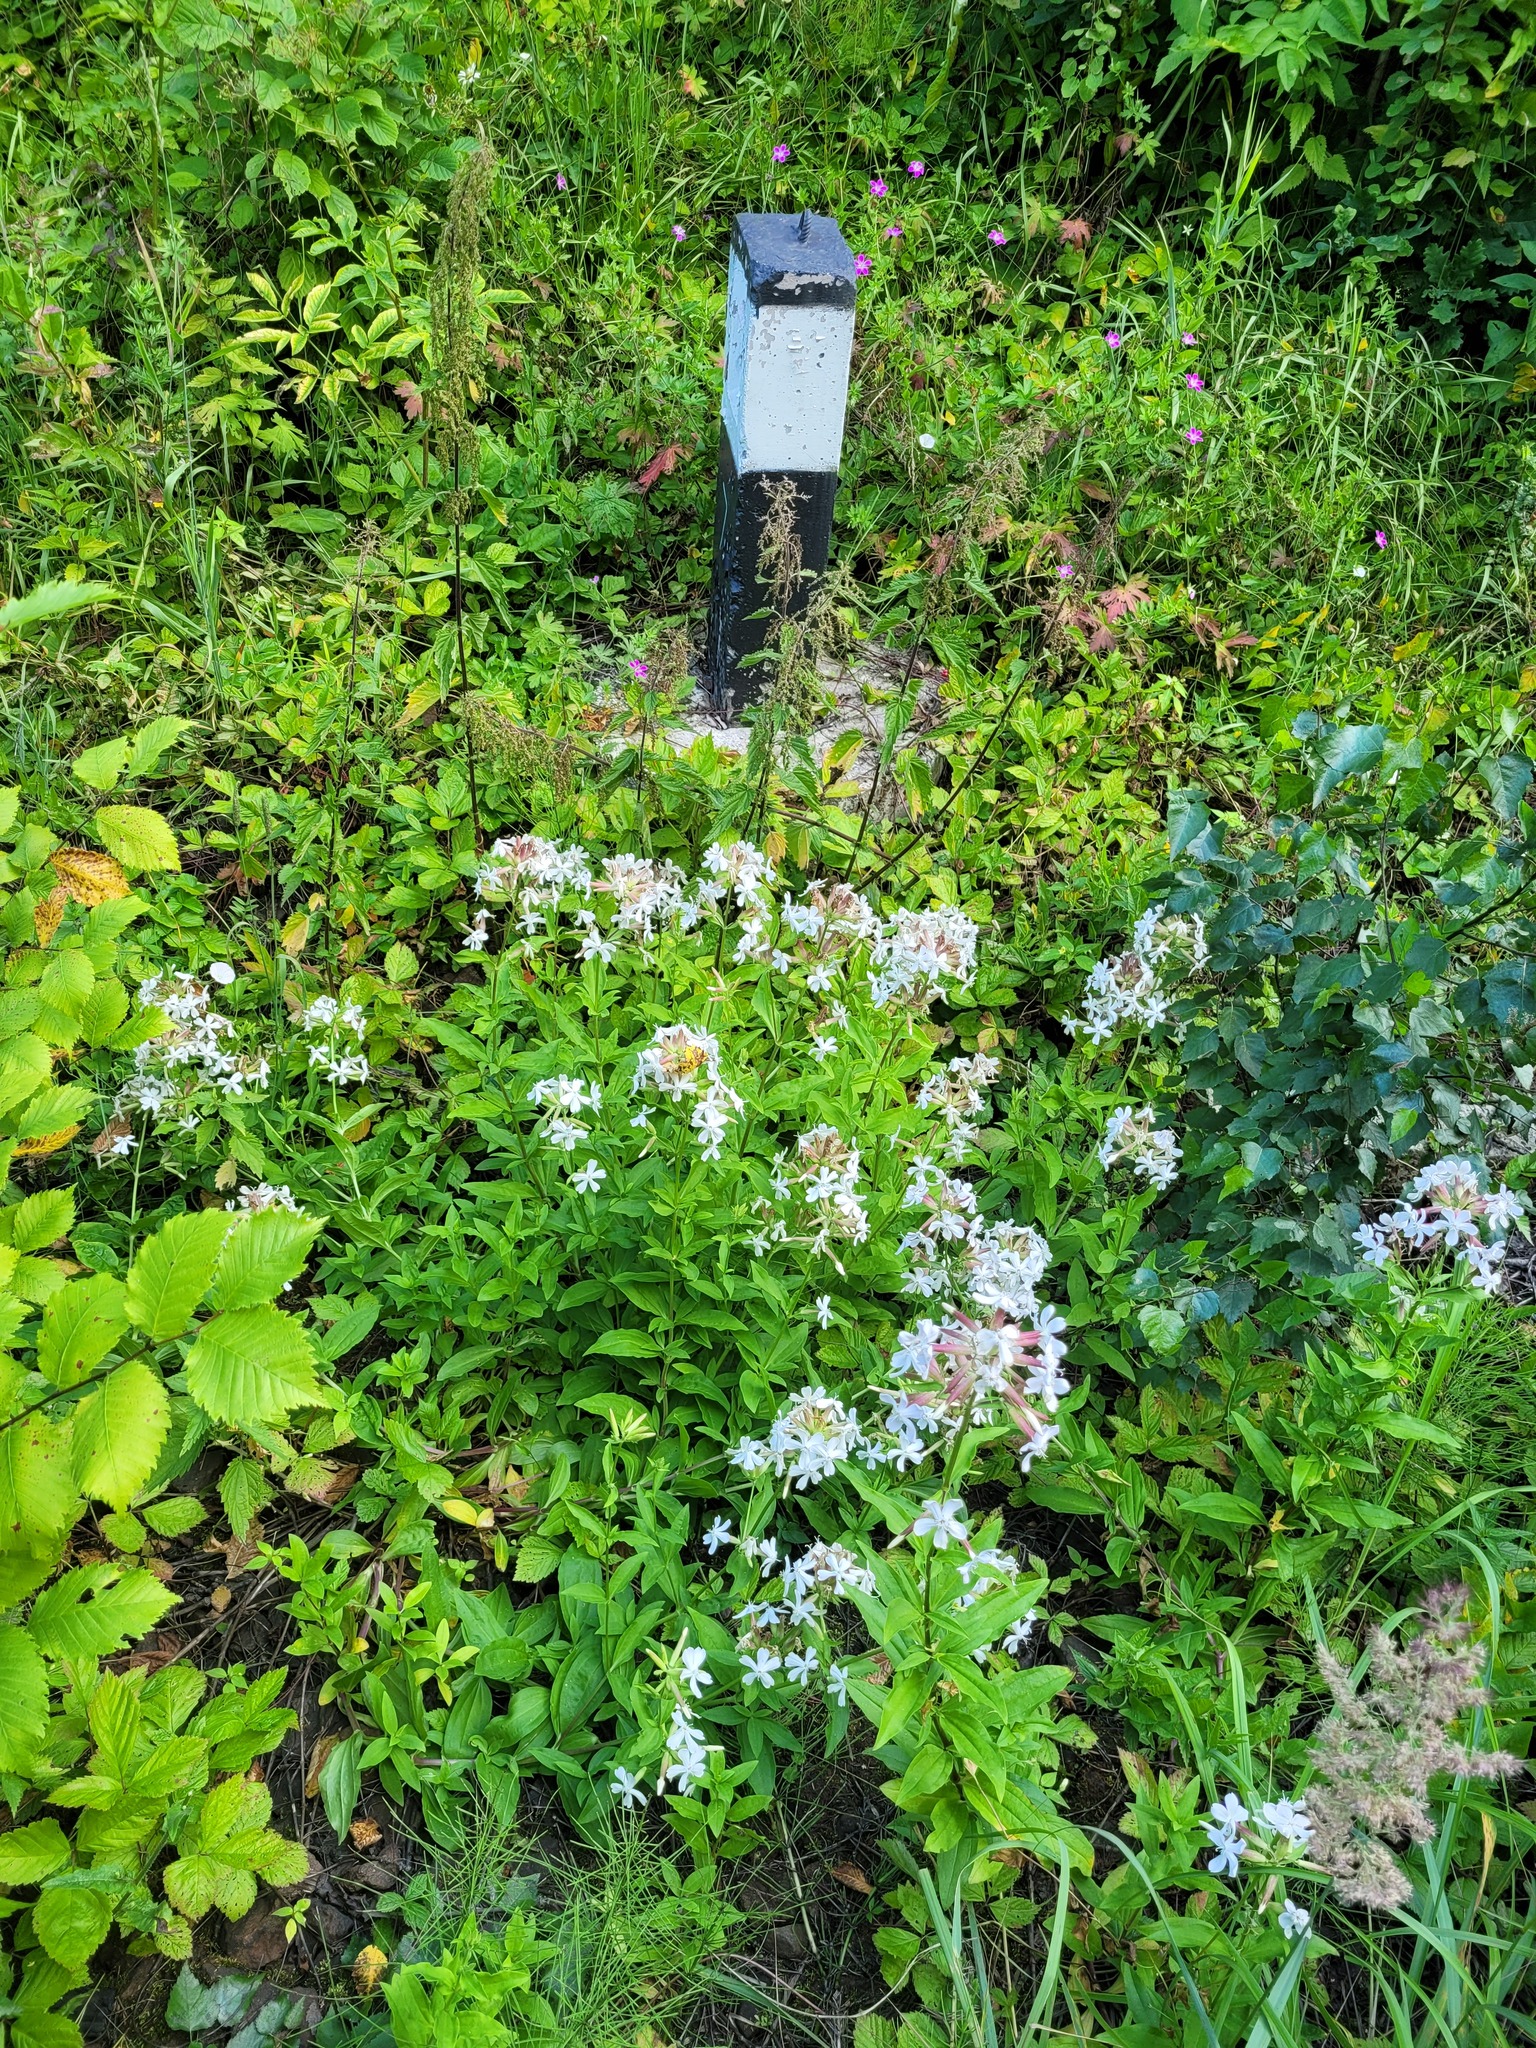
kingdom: Plantae
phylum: Tracheophyta
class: Magnoliopsida
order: Caryophyllales
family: Caryophyllaceae
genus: Saponaria
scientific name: Saponaria officinalis
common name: Soapwort
